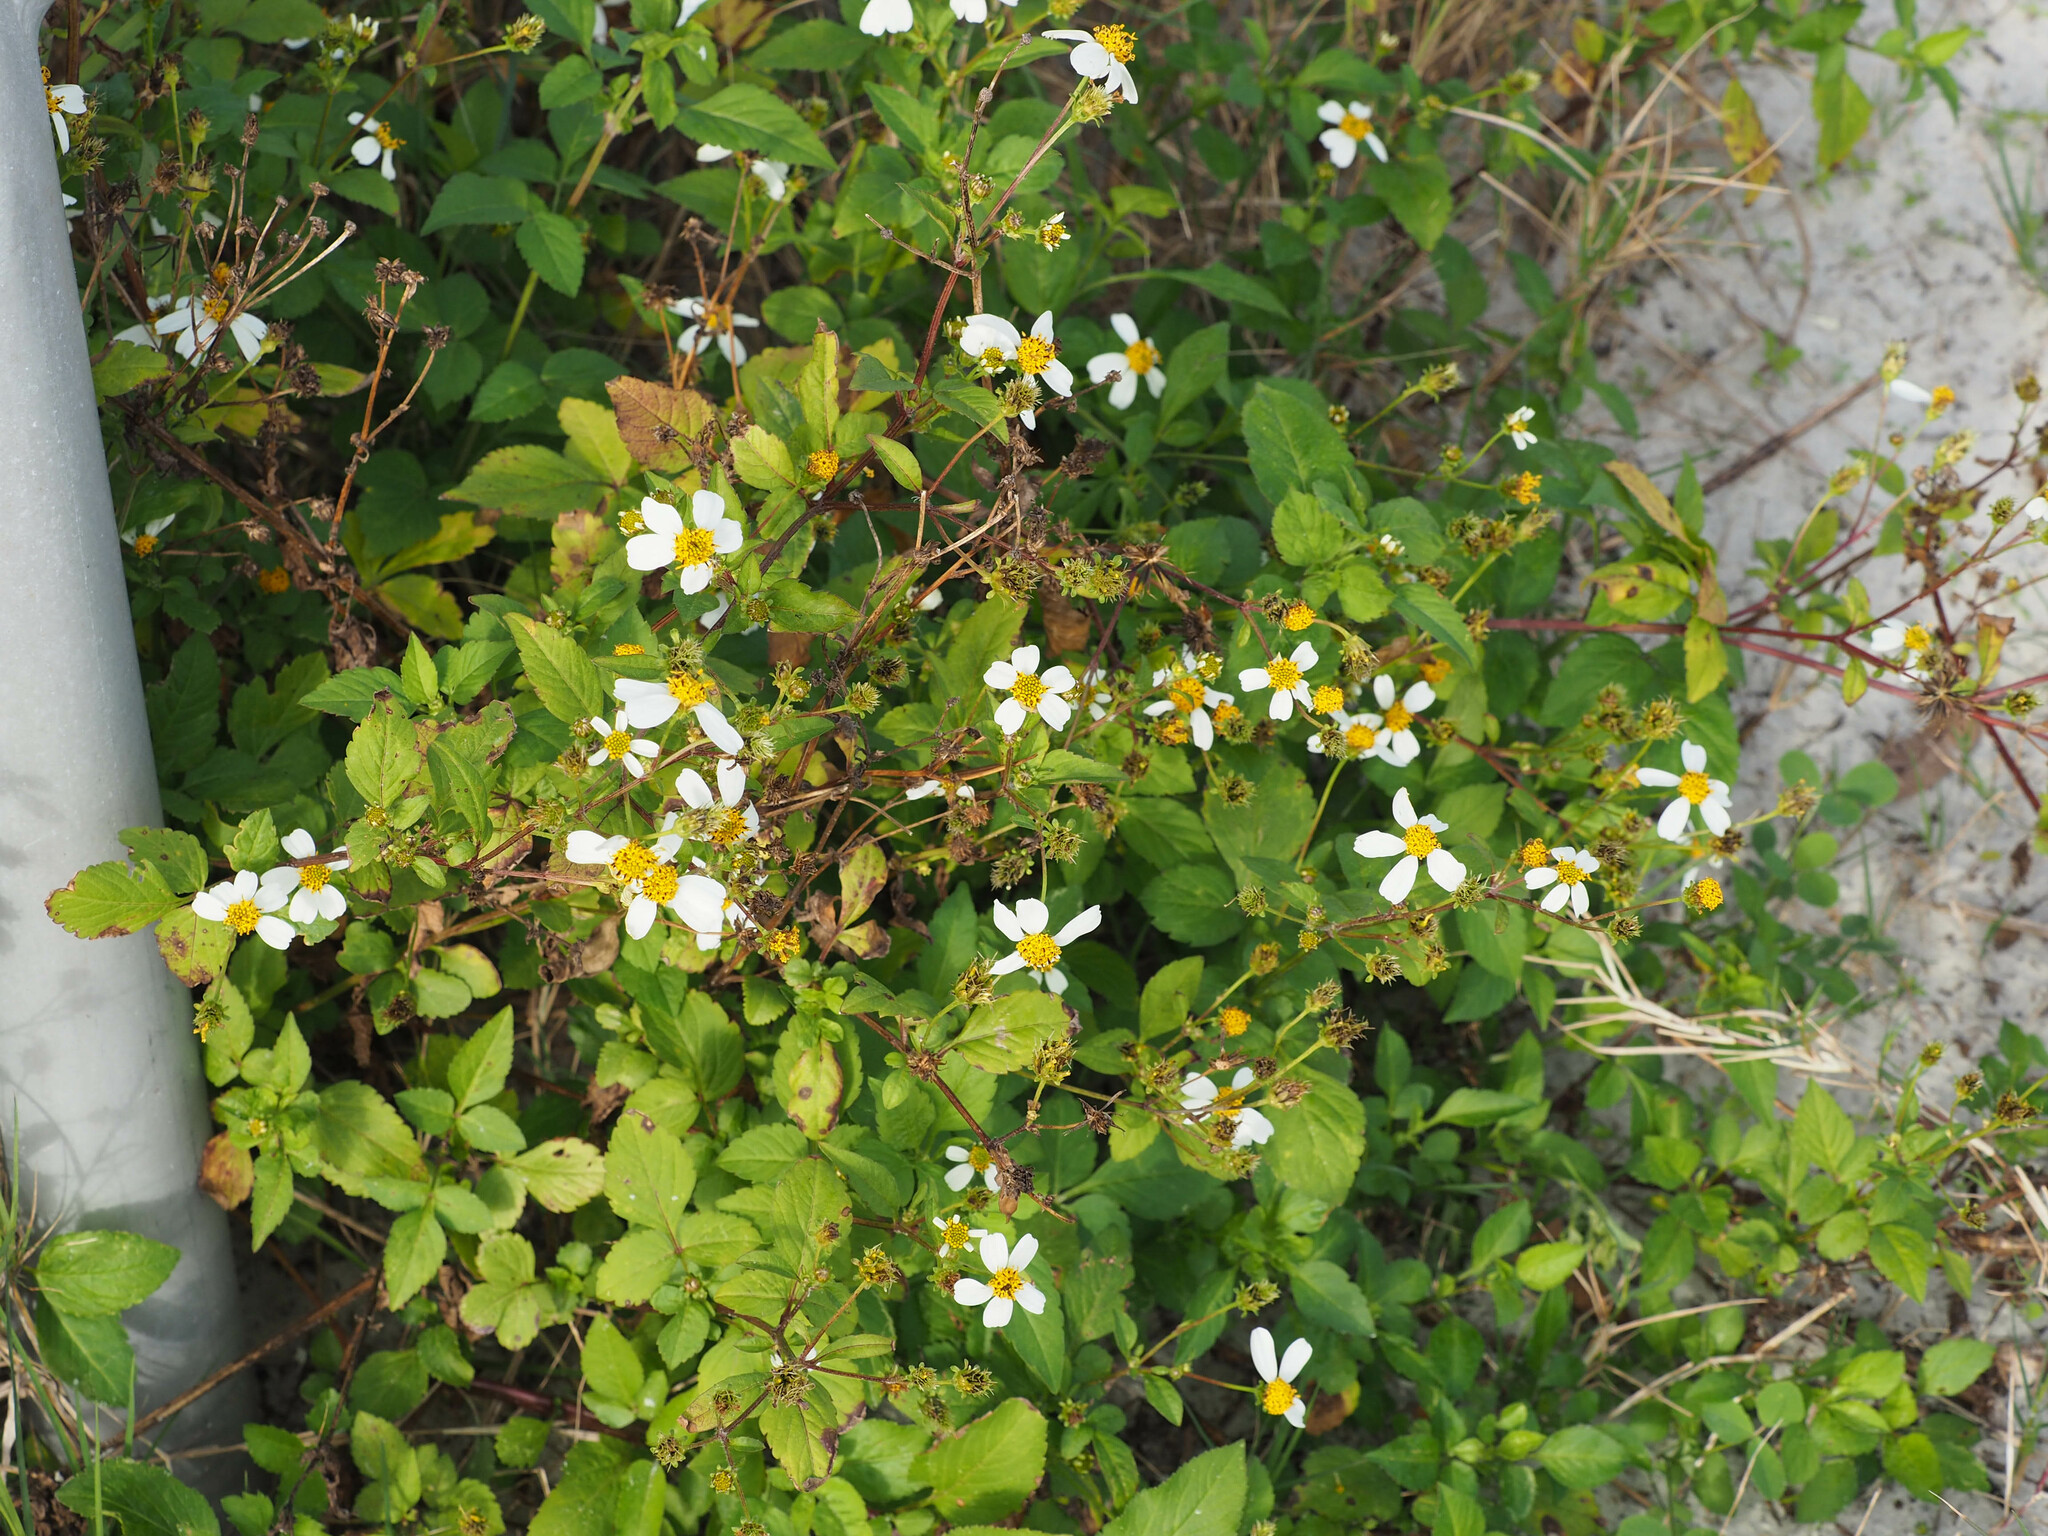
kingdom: Plantae
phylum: Tracheophyta
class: Magnoliopsida
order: Asterales
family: Asteraceae
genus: Bidens
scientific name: Bidens alba
